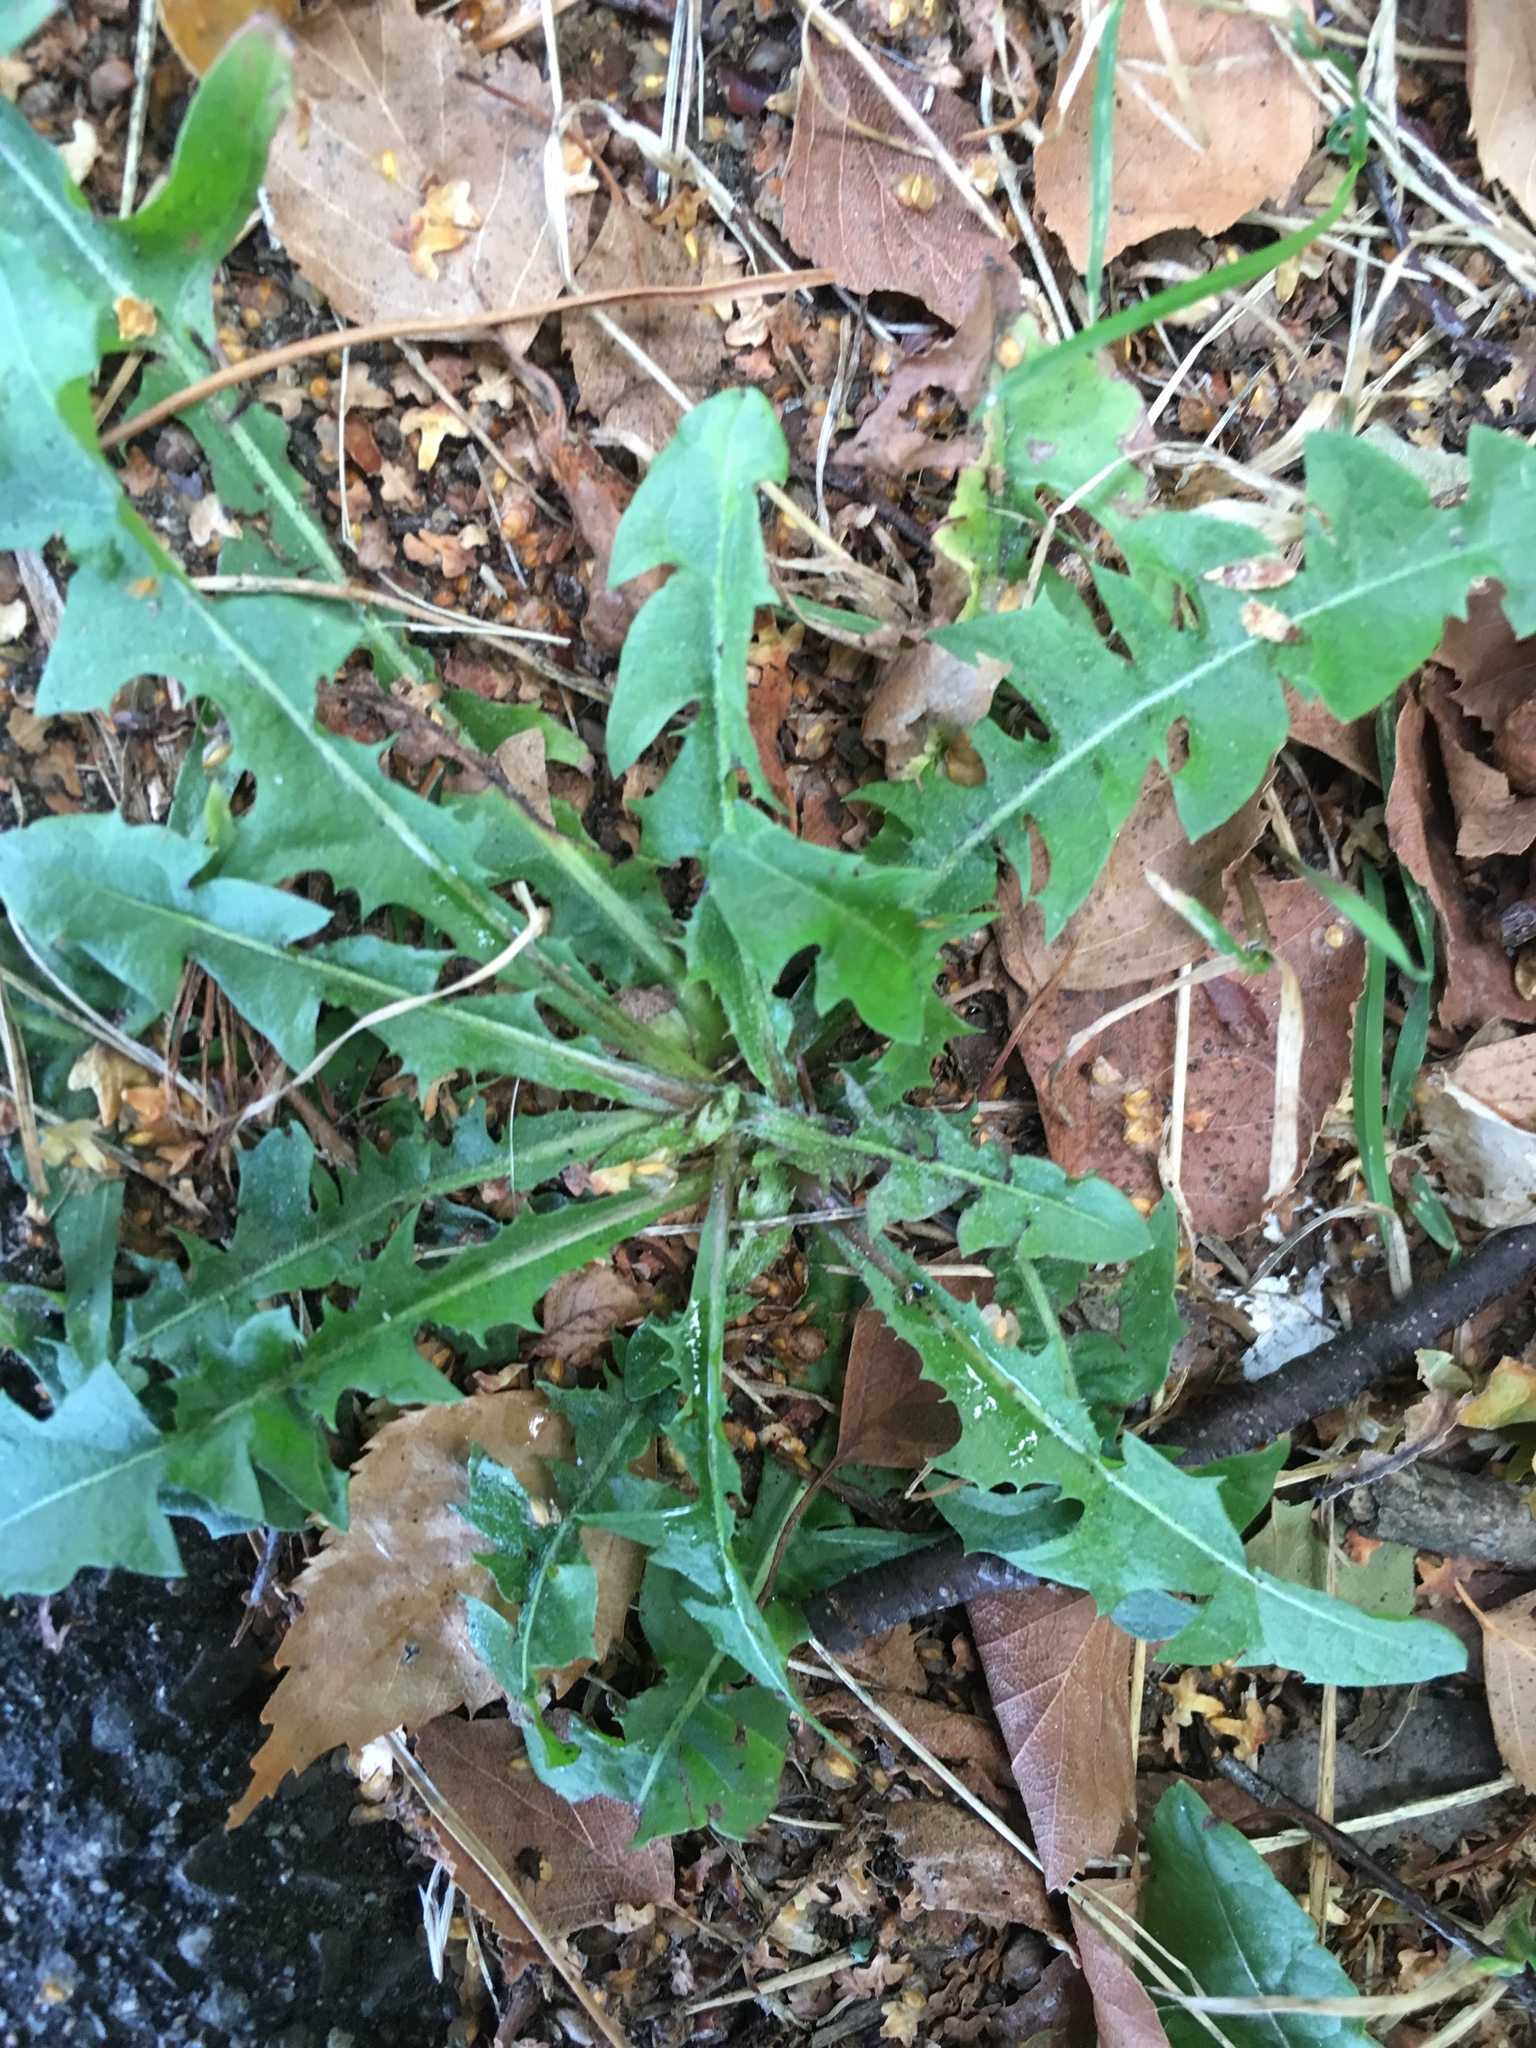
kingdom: Plantae
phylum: Tracheophyta
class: Magnoliopsida
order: Asterales
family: Asteraceae
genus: Taraxacum
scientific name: Taraxacum officinale
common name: Common dandelion
